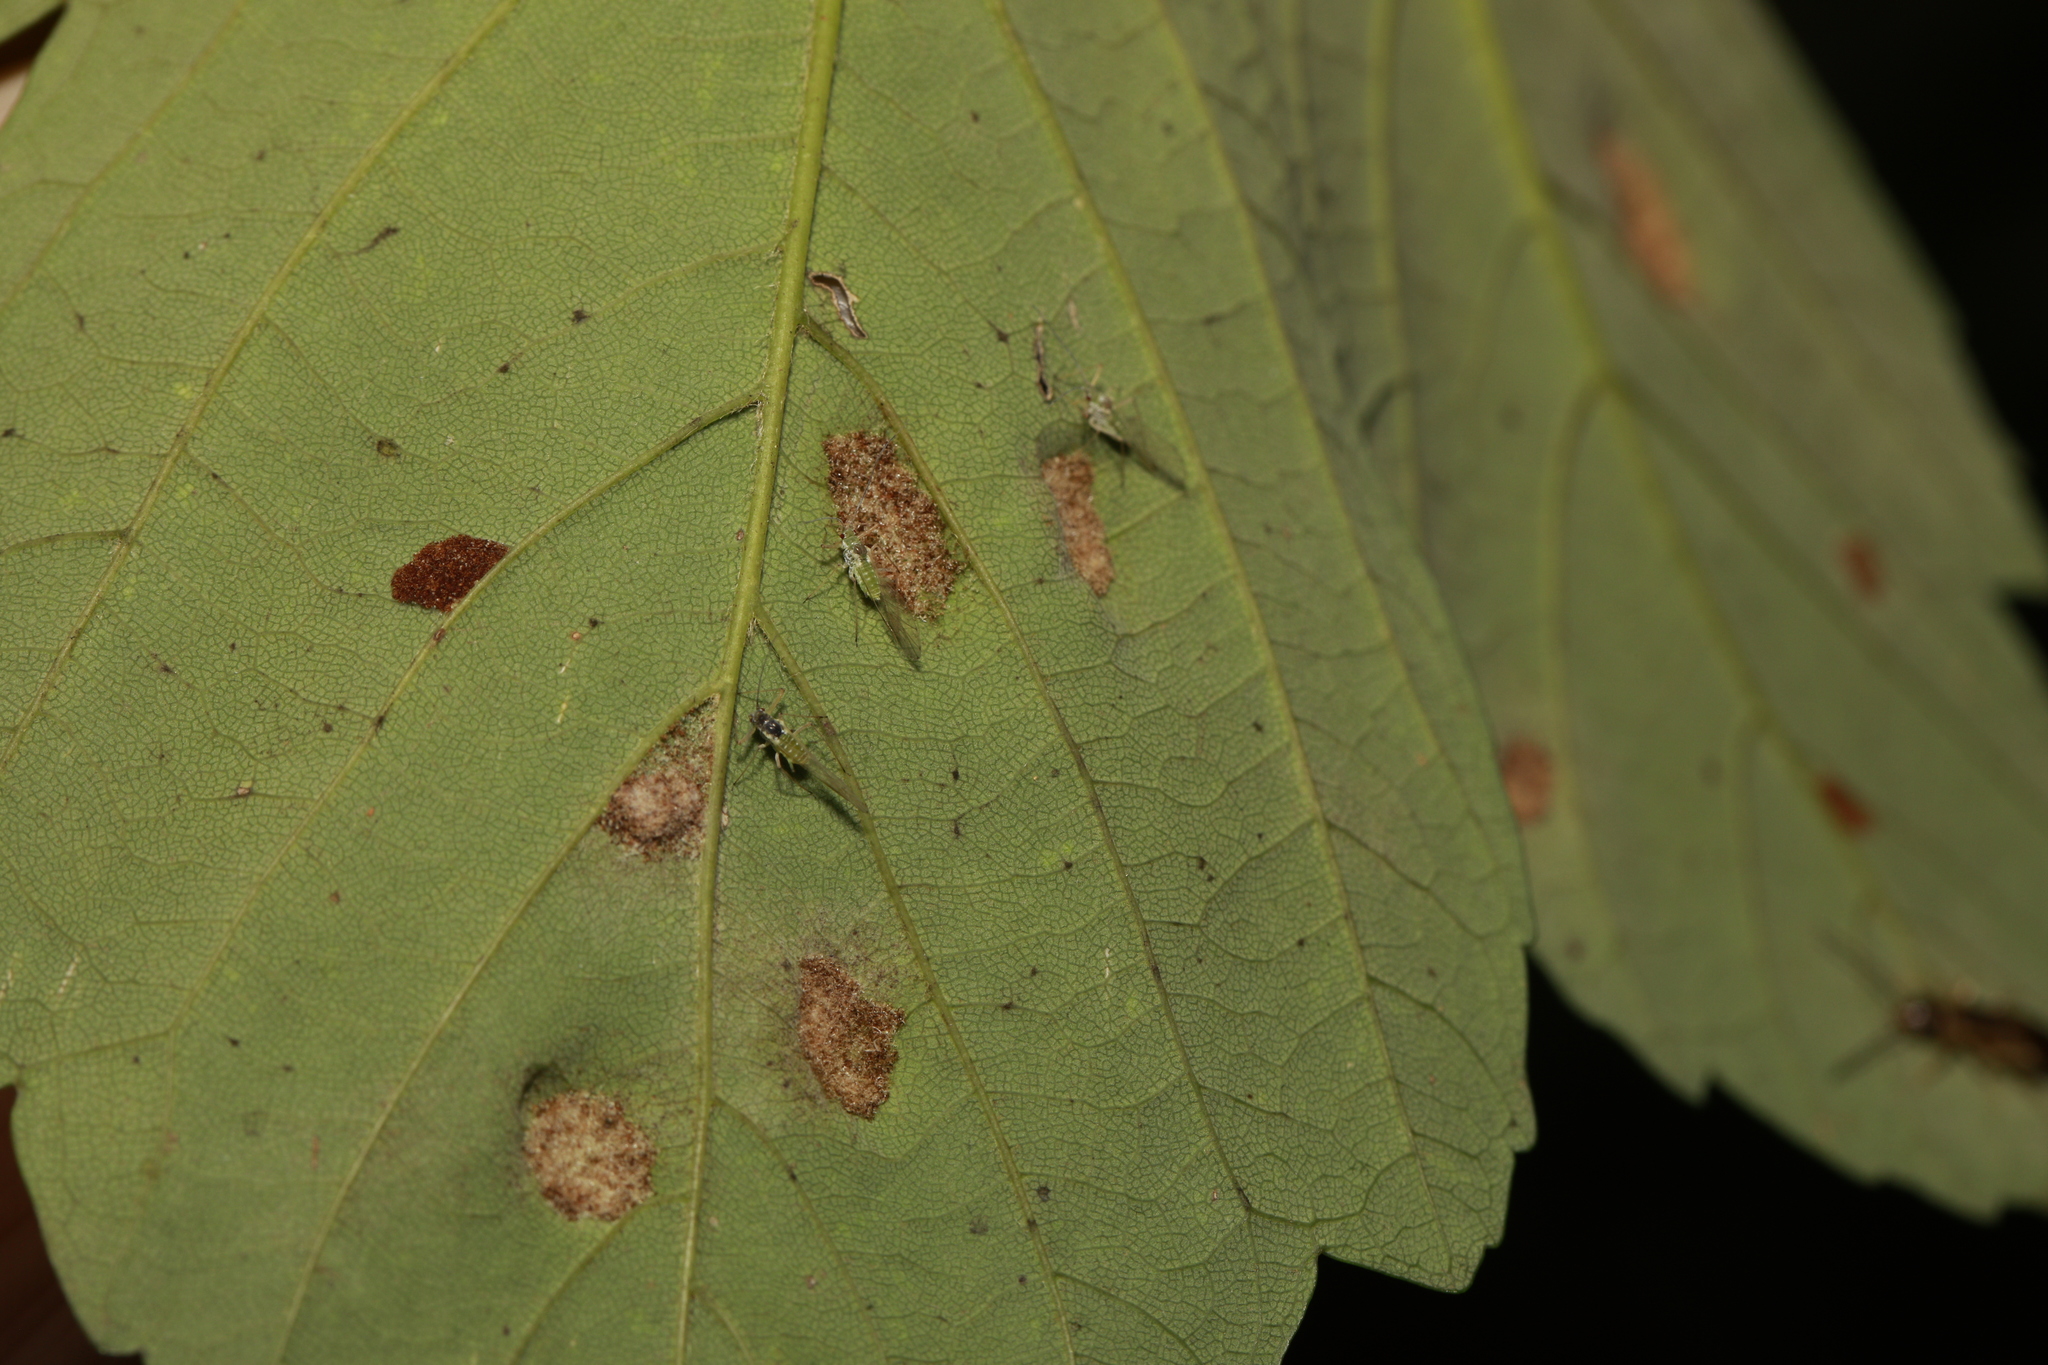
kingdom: Animalia
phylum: Arthropoda
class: Arachnida
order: Trombidiformes
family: Eriophyidae
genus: Aceria
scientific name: Aceria pseudoplatani
